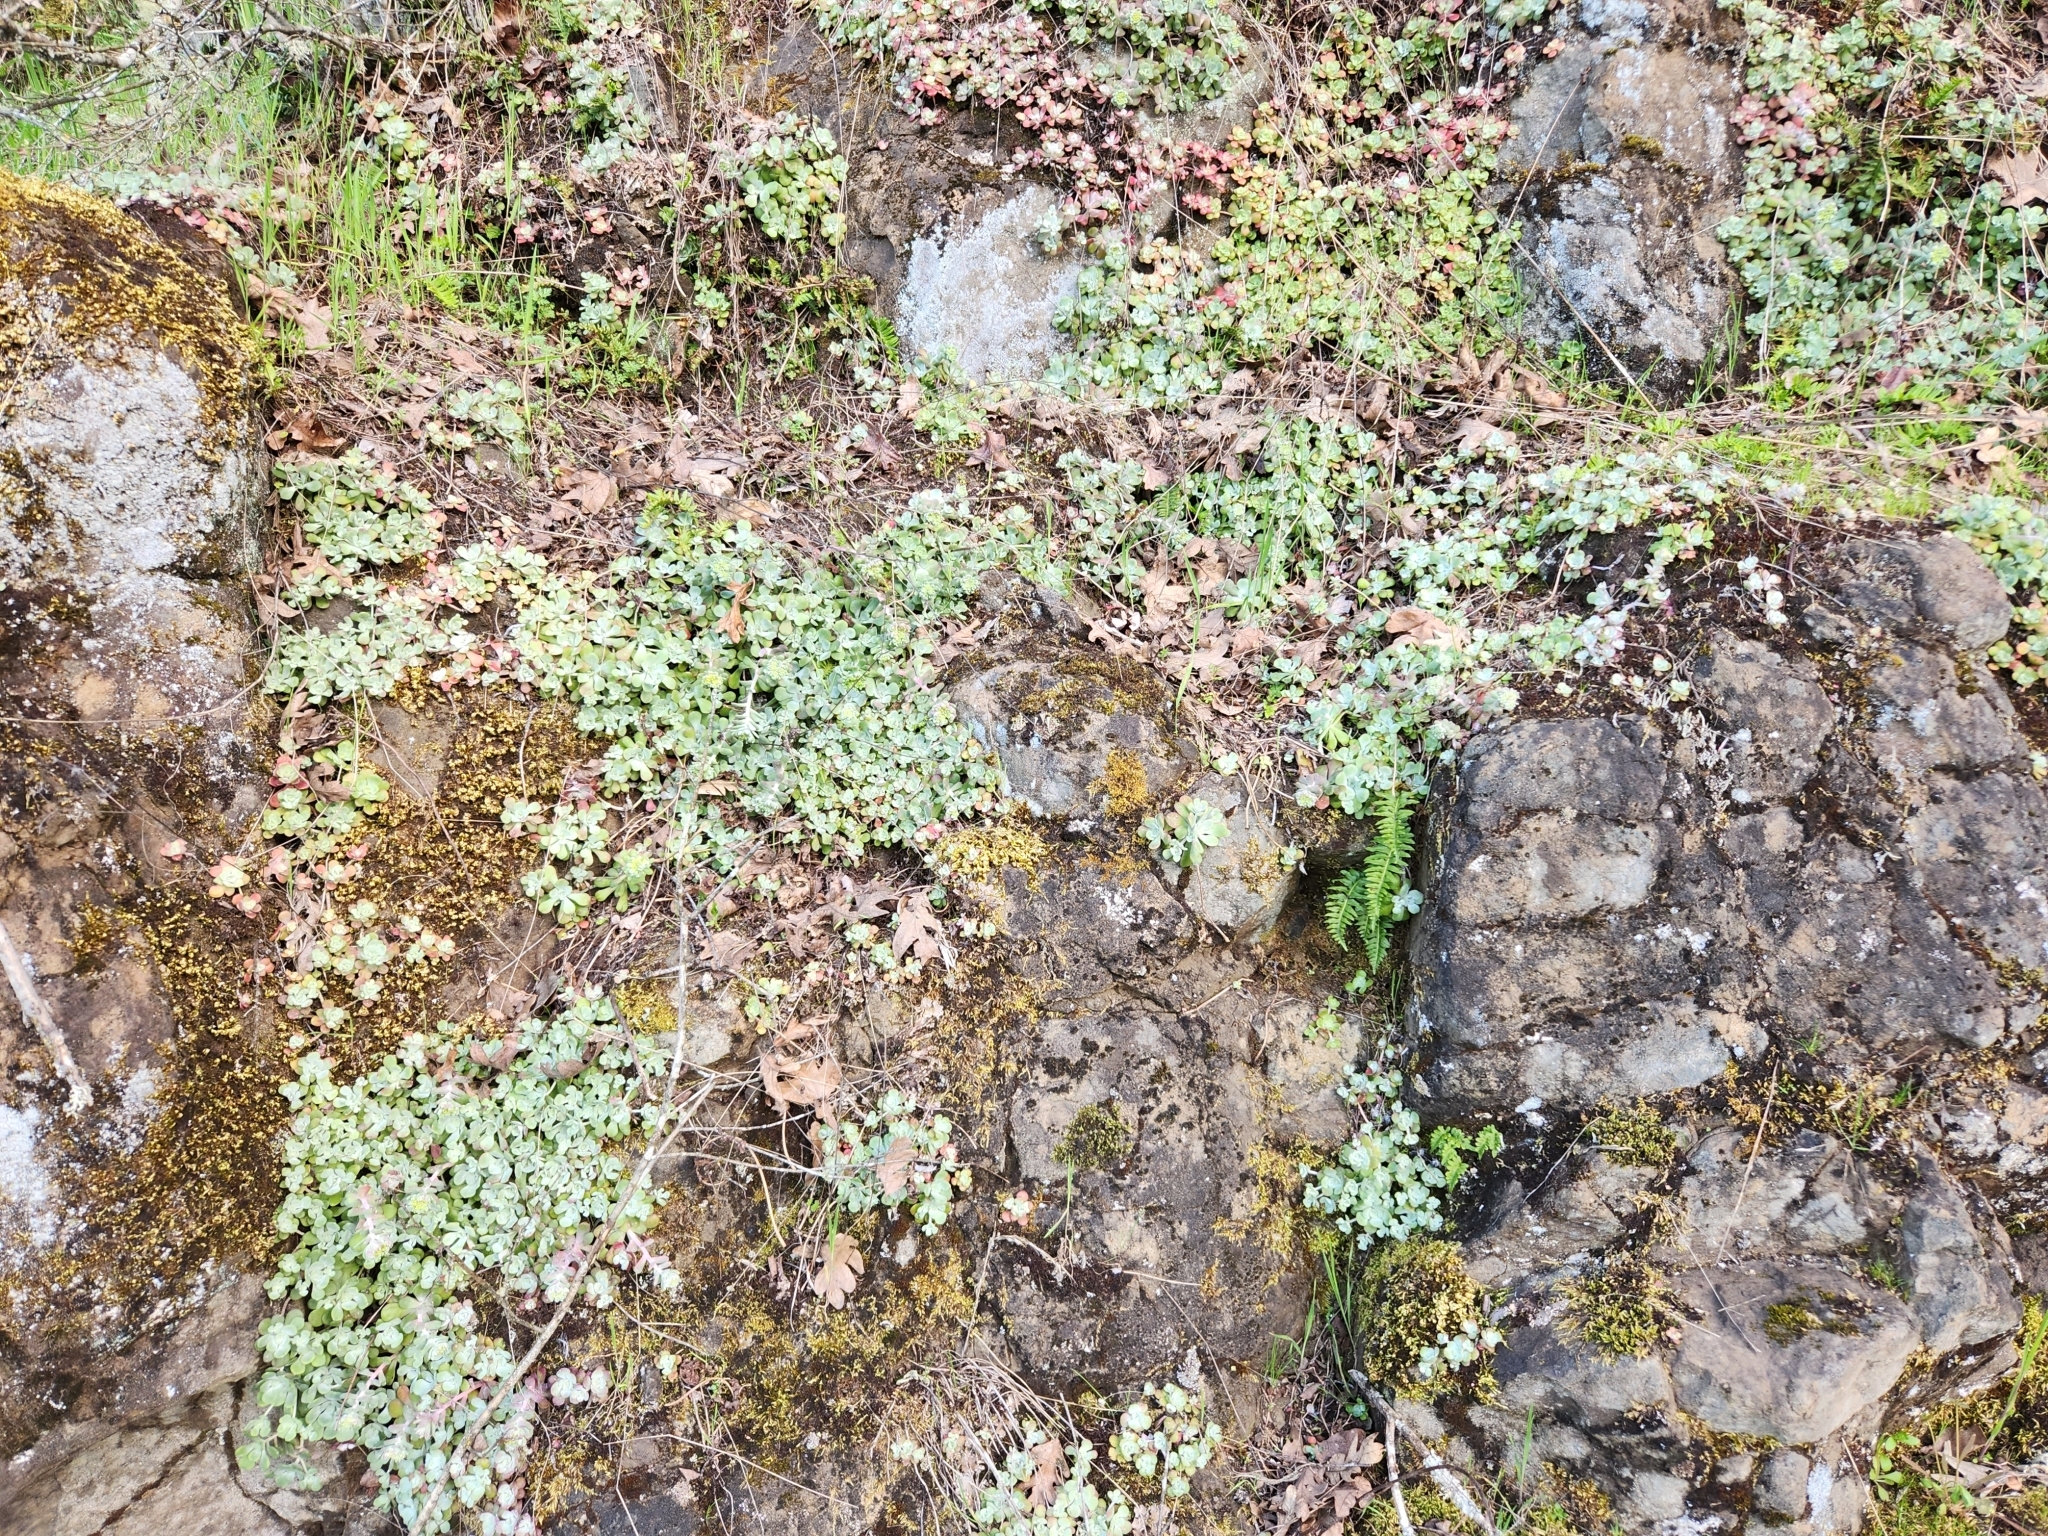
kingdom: Plantae
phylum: Tracheophyta
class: Magnoliopsida
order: Saxifragales
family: Crassulaceae
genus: Sedum
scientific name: Sedum spathulifolium
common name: Colorado stonecrop
